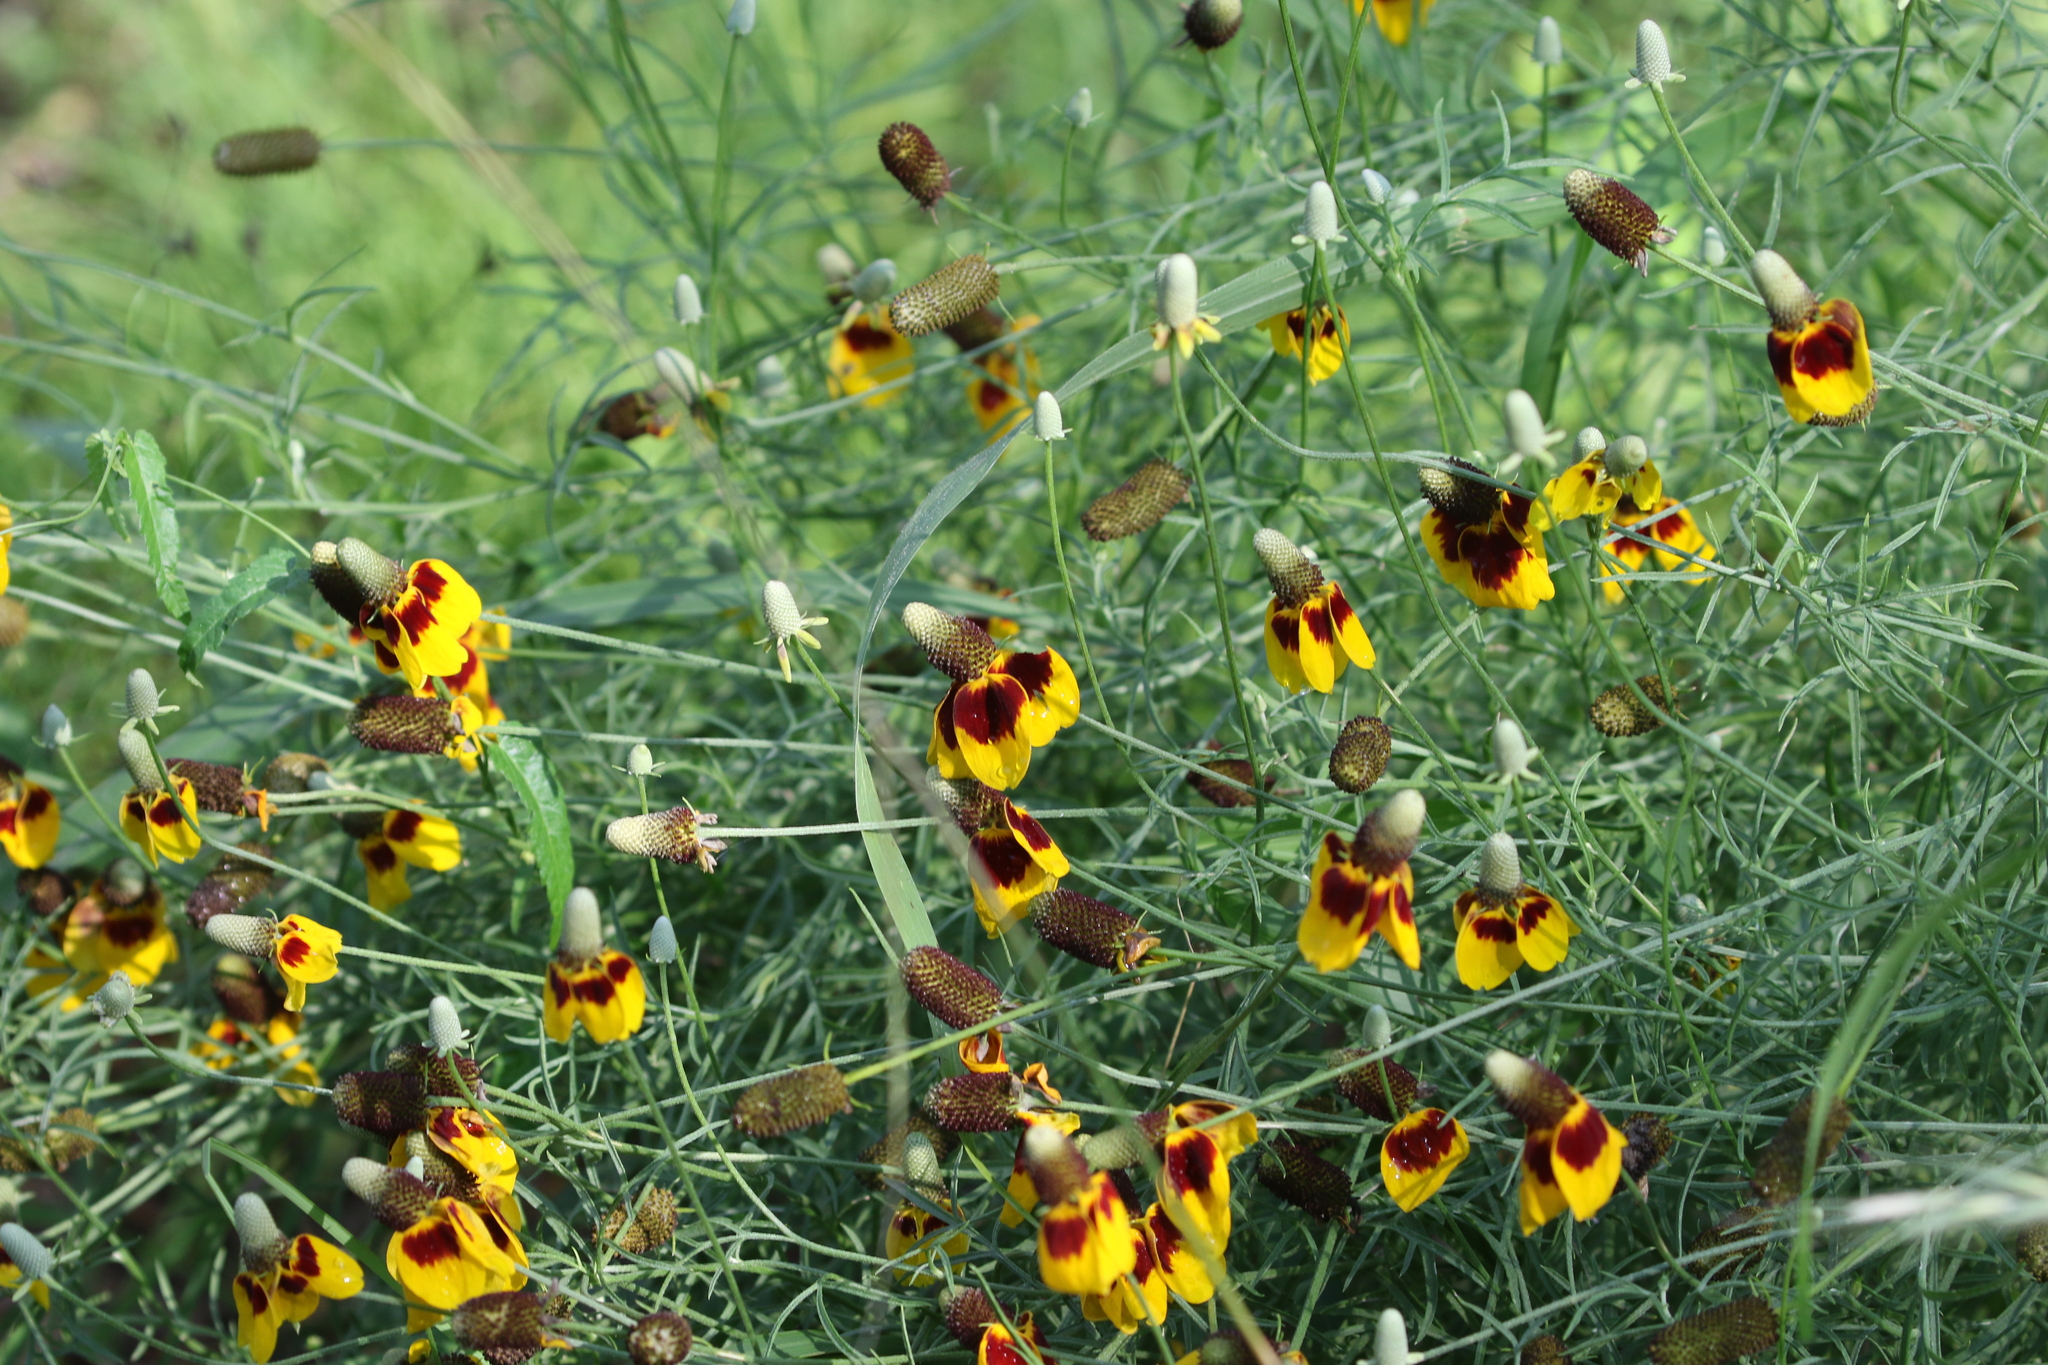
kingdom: Plantae
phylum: Tracheophyta
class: Magnoliopsida
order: Asterales
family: Asteraceae
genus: Ratibida
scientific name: Ratibida columnifera
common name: Prairie coneflower
